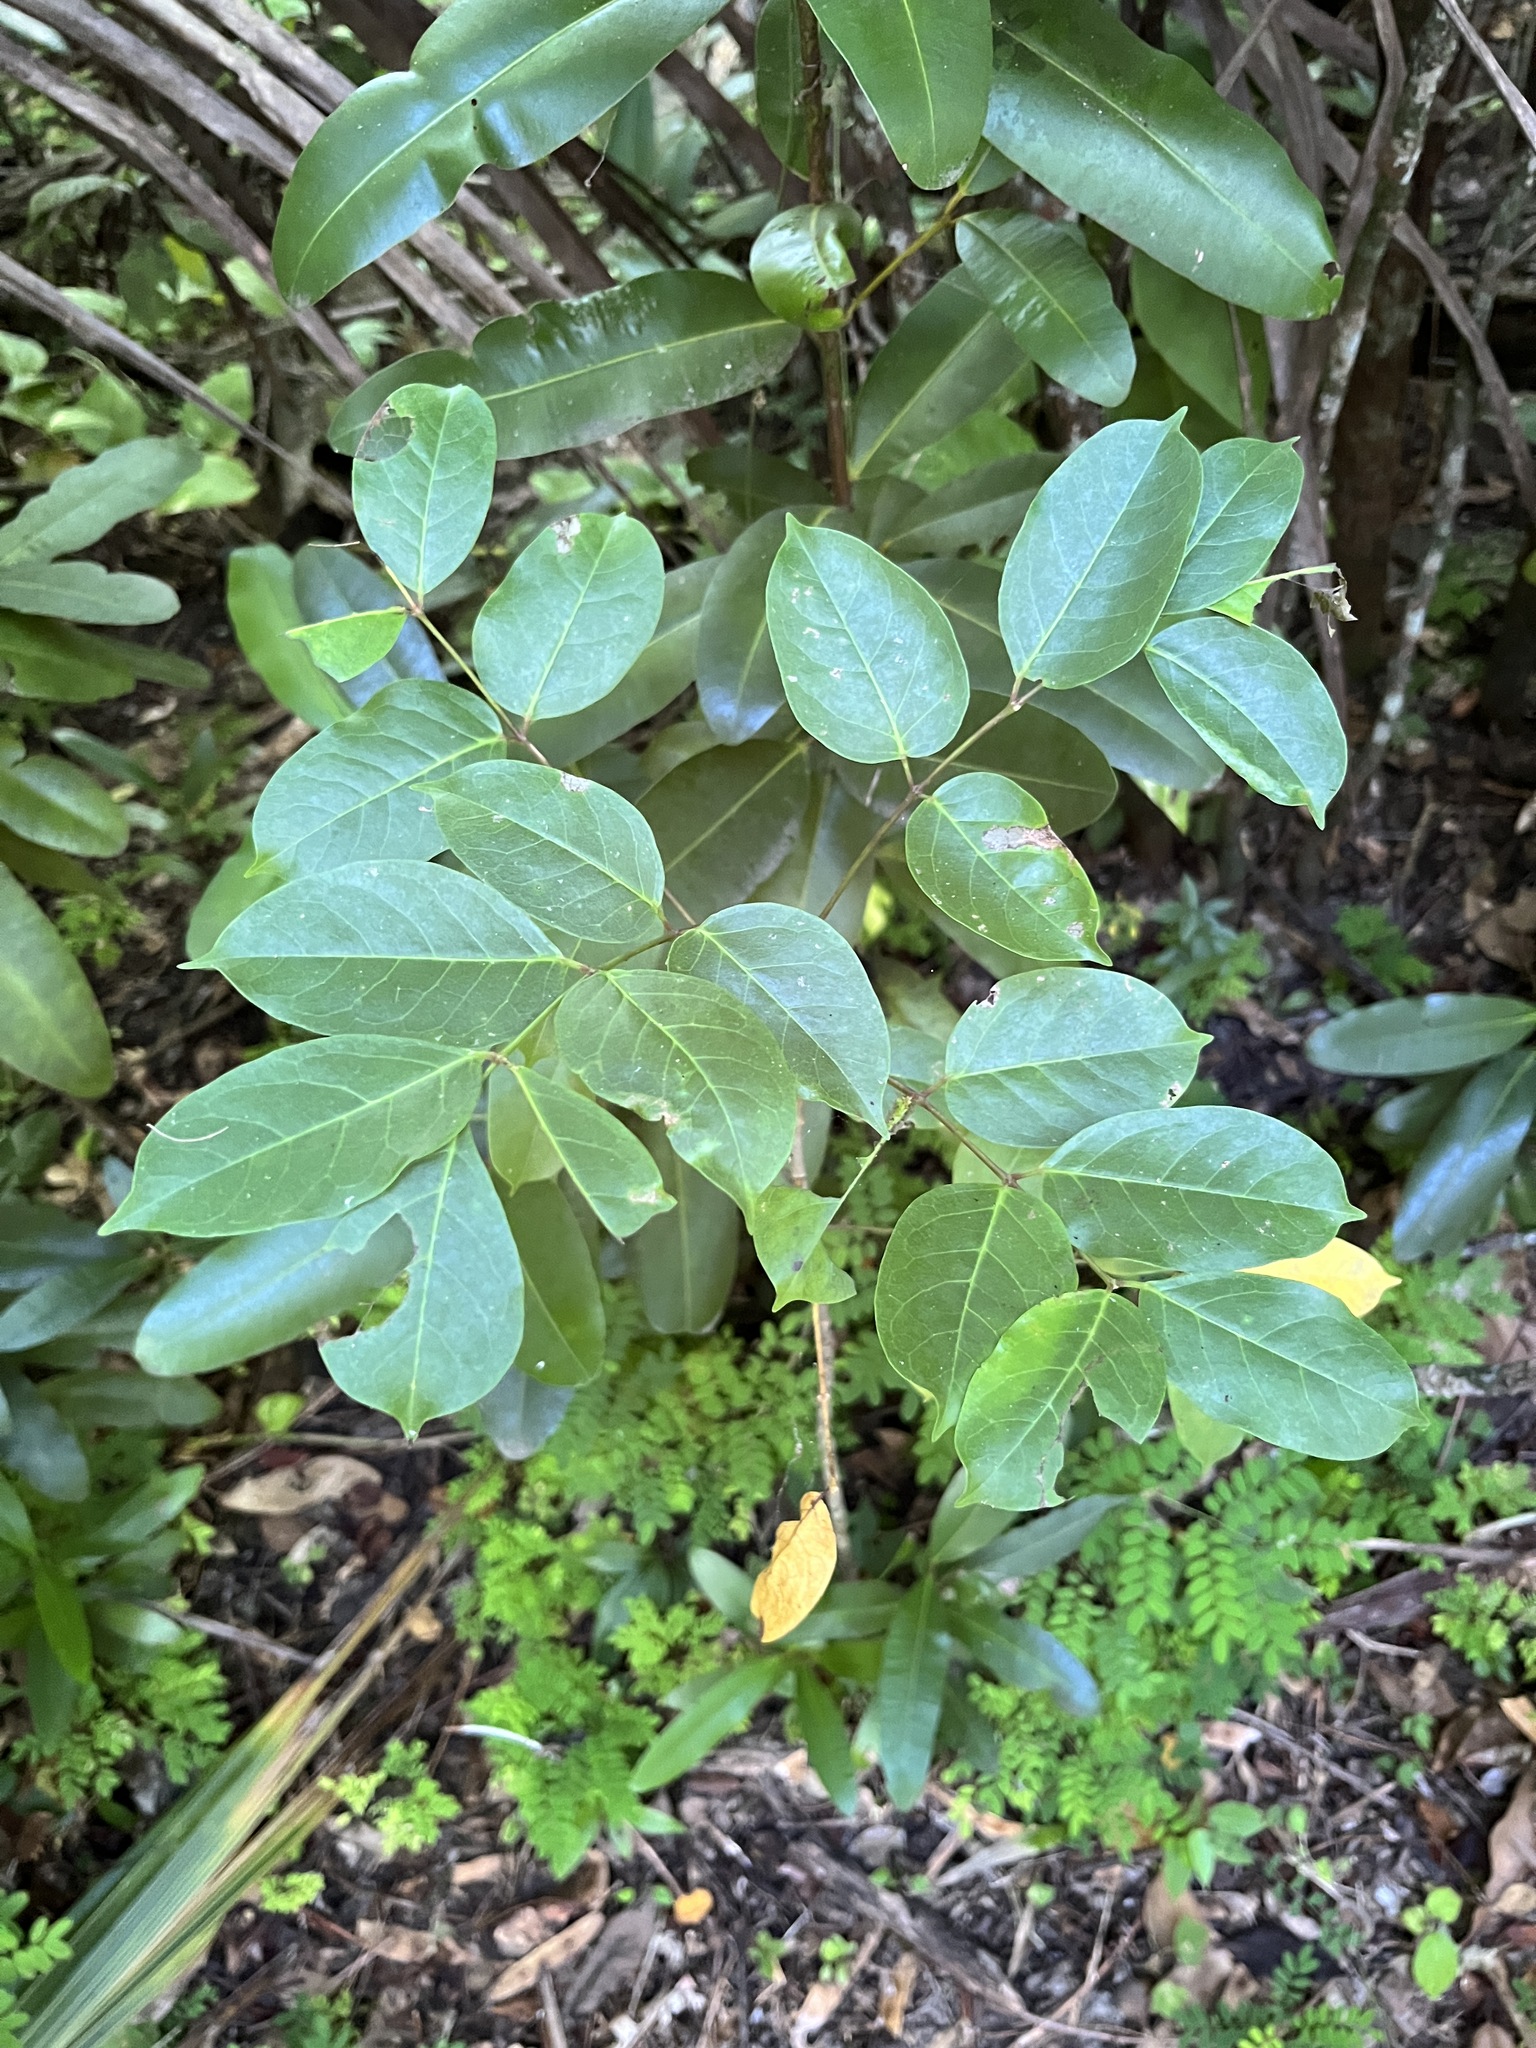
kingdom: Plantae
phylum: Tracheophyta
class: Magnoliopsida
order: Sapindales
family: Burseraceae
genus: Bursera
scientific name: Bursera simaruba
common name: Turpentine tree
